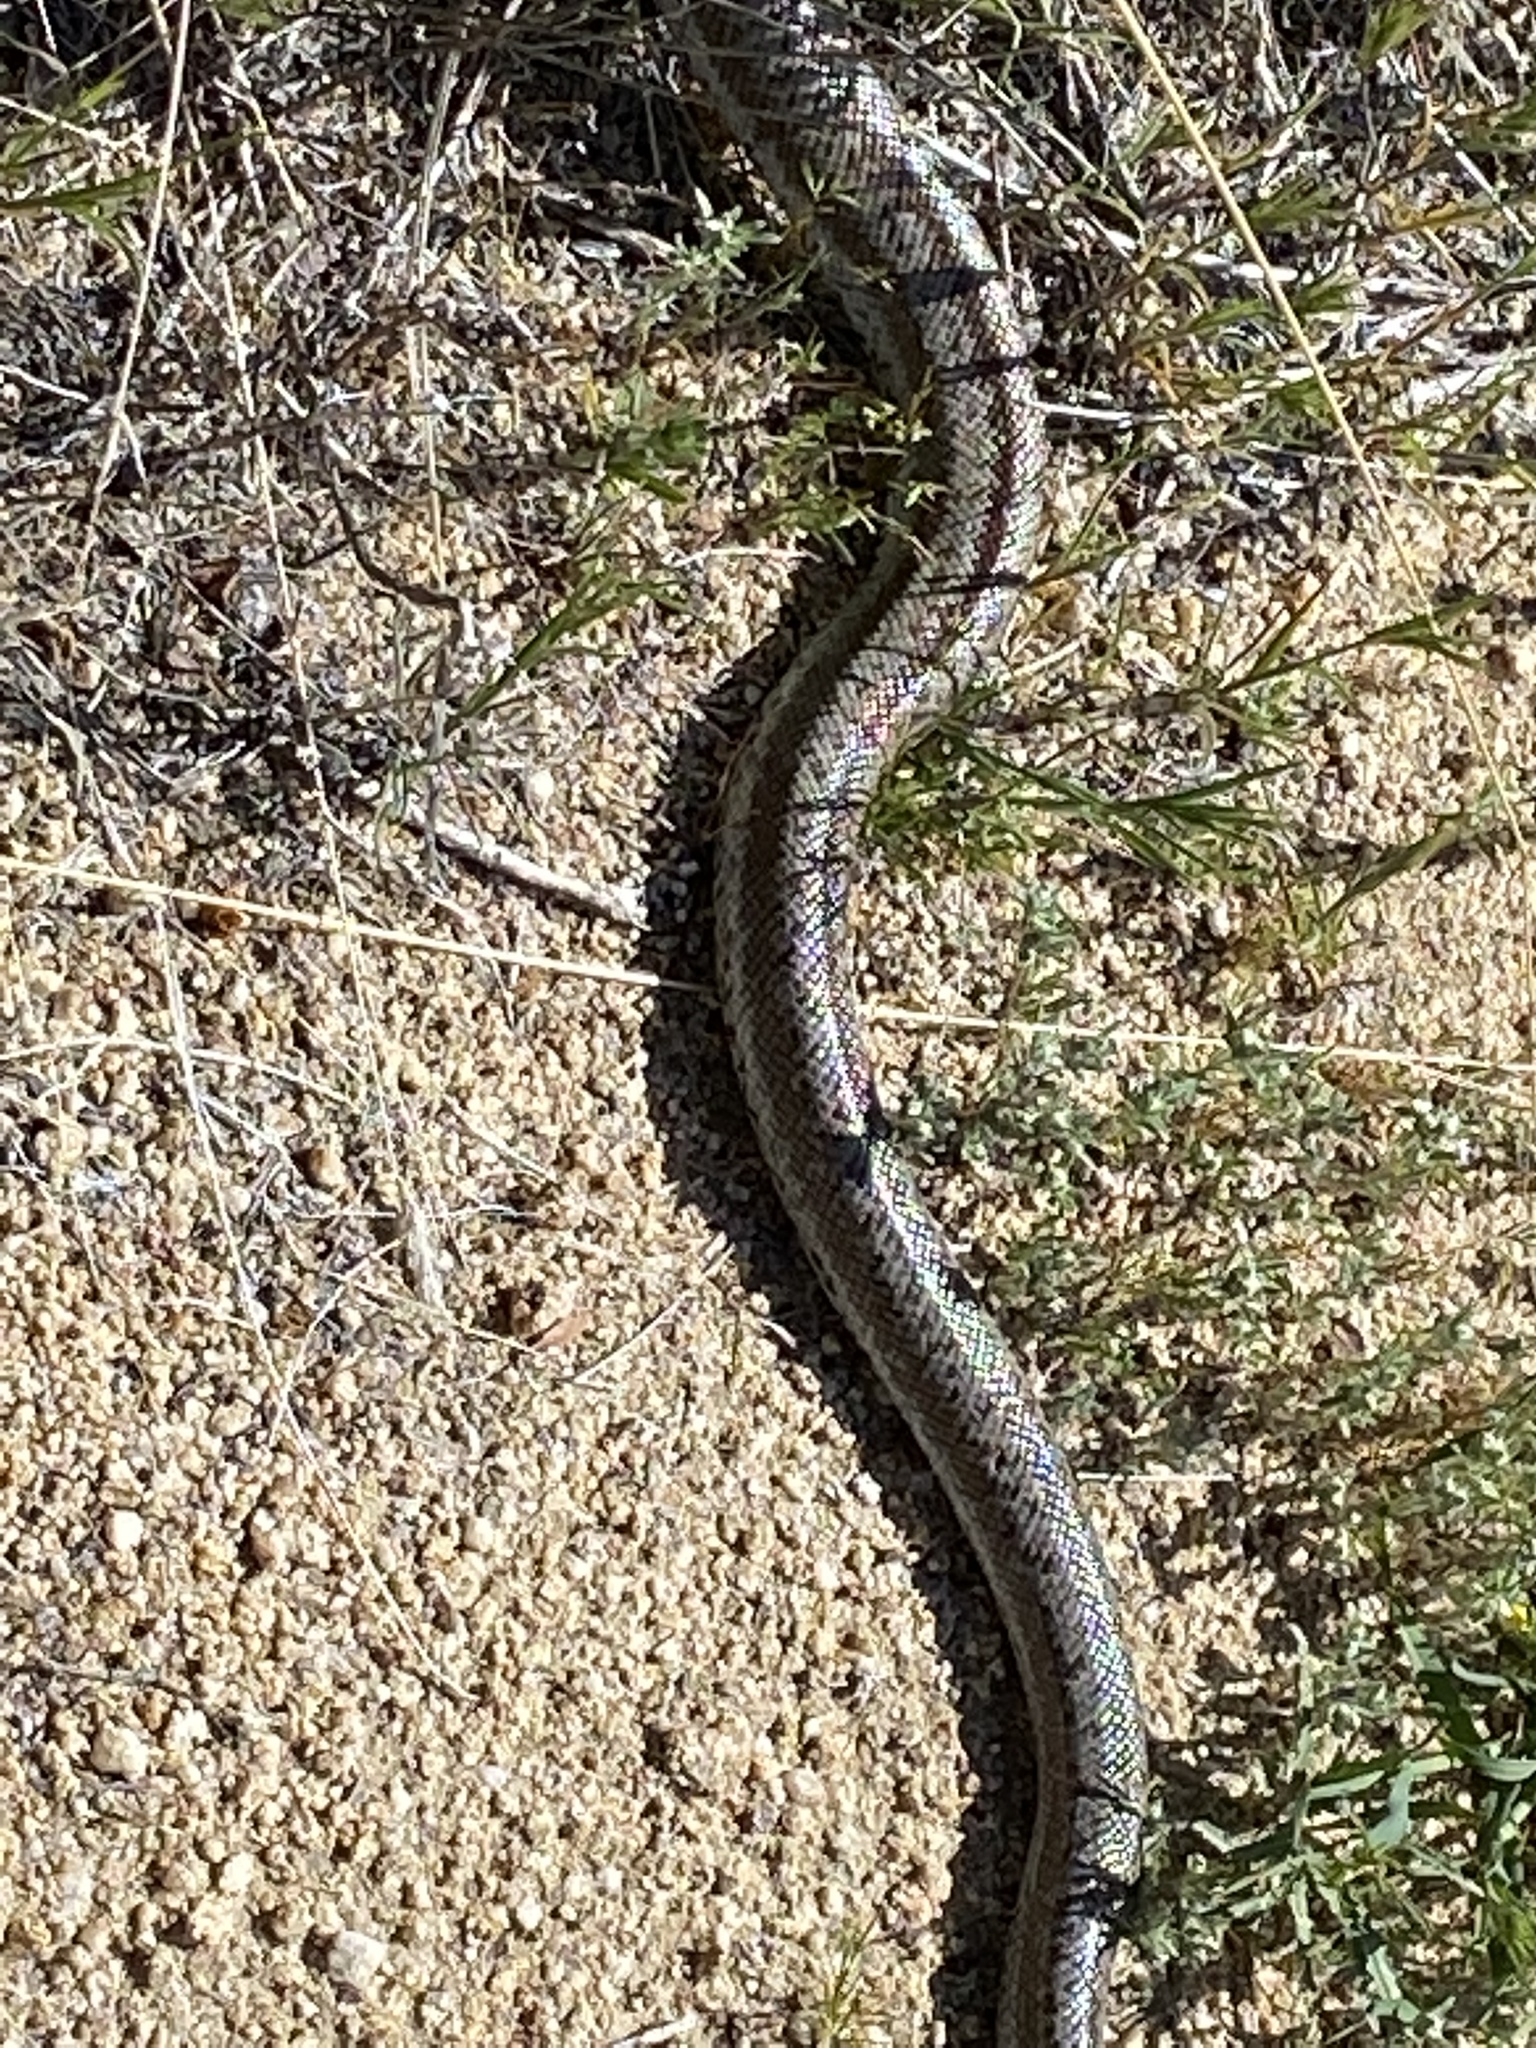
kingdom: Animalia
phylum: Chordata
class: Squamata
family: Boidae
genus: Lichanura
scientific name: Lichanura orcutti
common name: Northern three-lined boa
